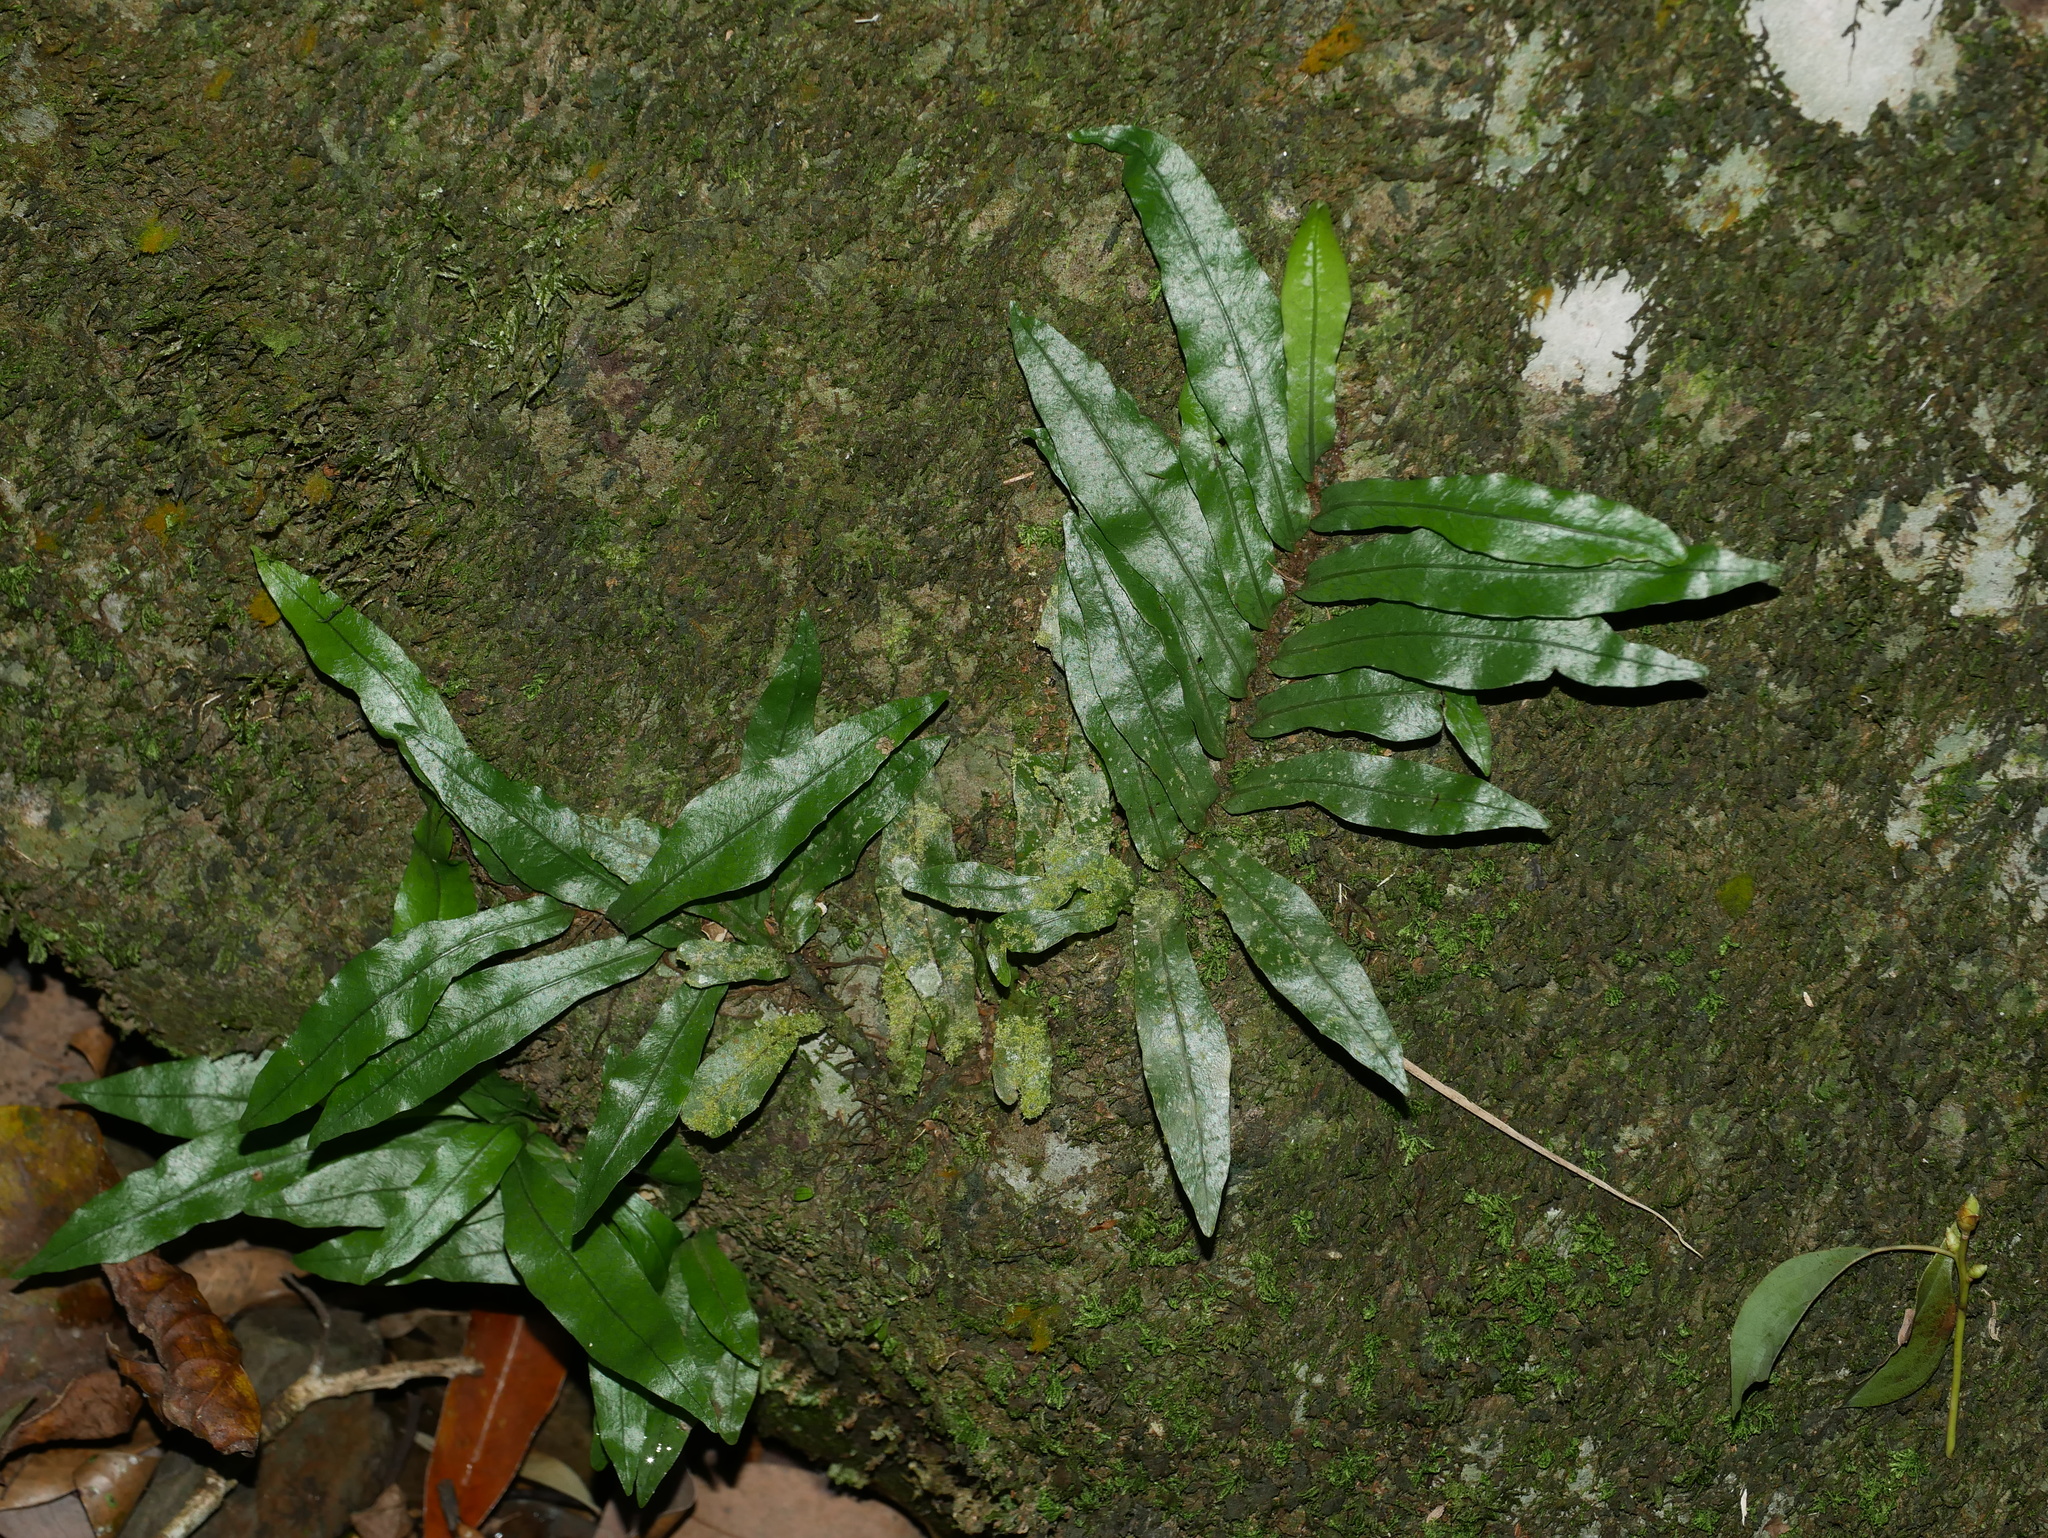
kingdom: Plantae
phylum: Tracheophyta
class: Polypodiopsida
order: Polypodiales
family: Polypodiaceae
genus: Leptochilus
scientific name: Leptochilus wrightii
